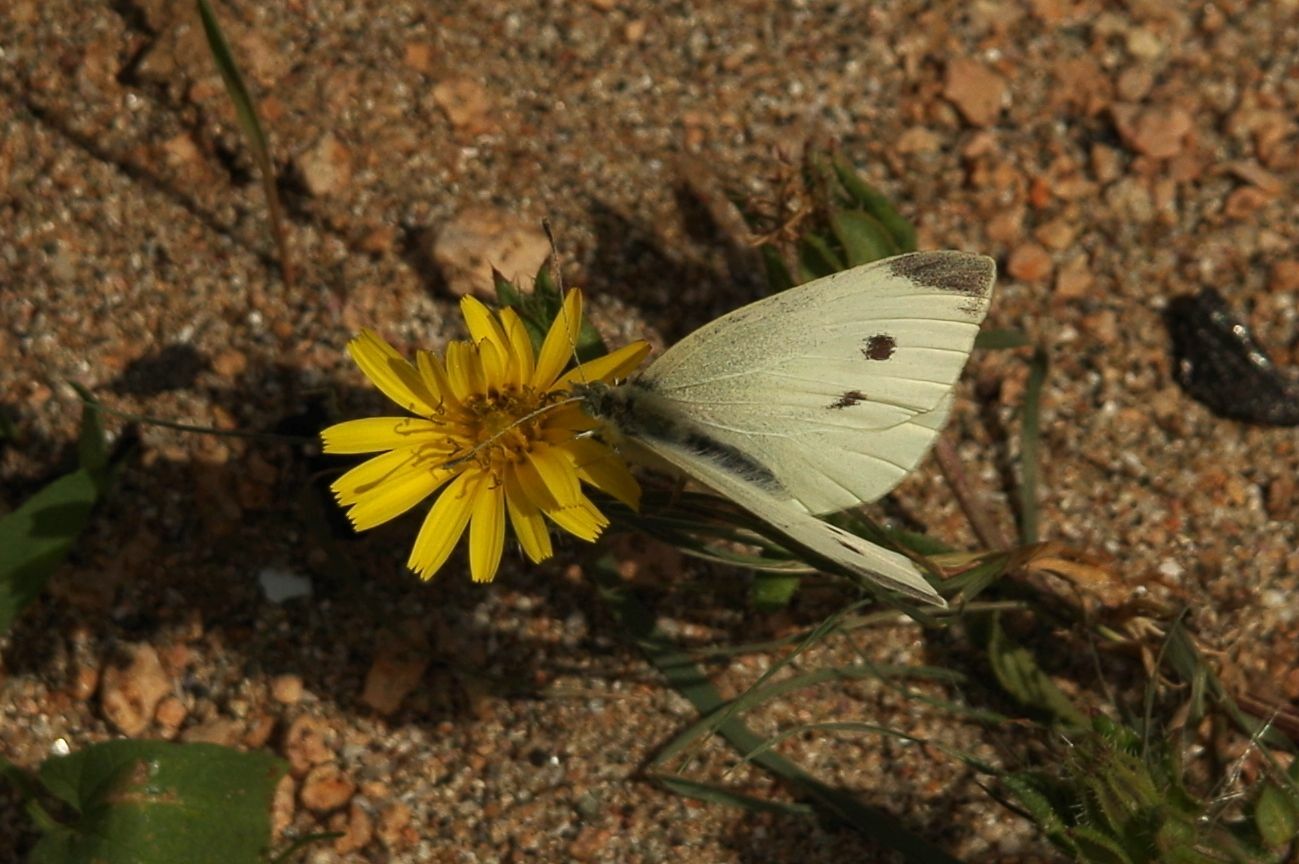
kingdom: Animalia
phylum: Arthropoda
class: Insecta
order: Lepidoptera
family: Pieridae
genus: Pieris
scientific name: Pieris rapae
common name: Small white
